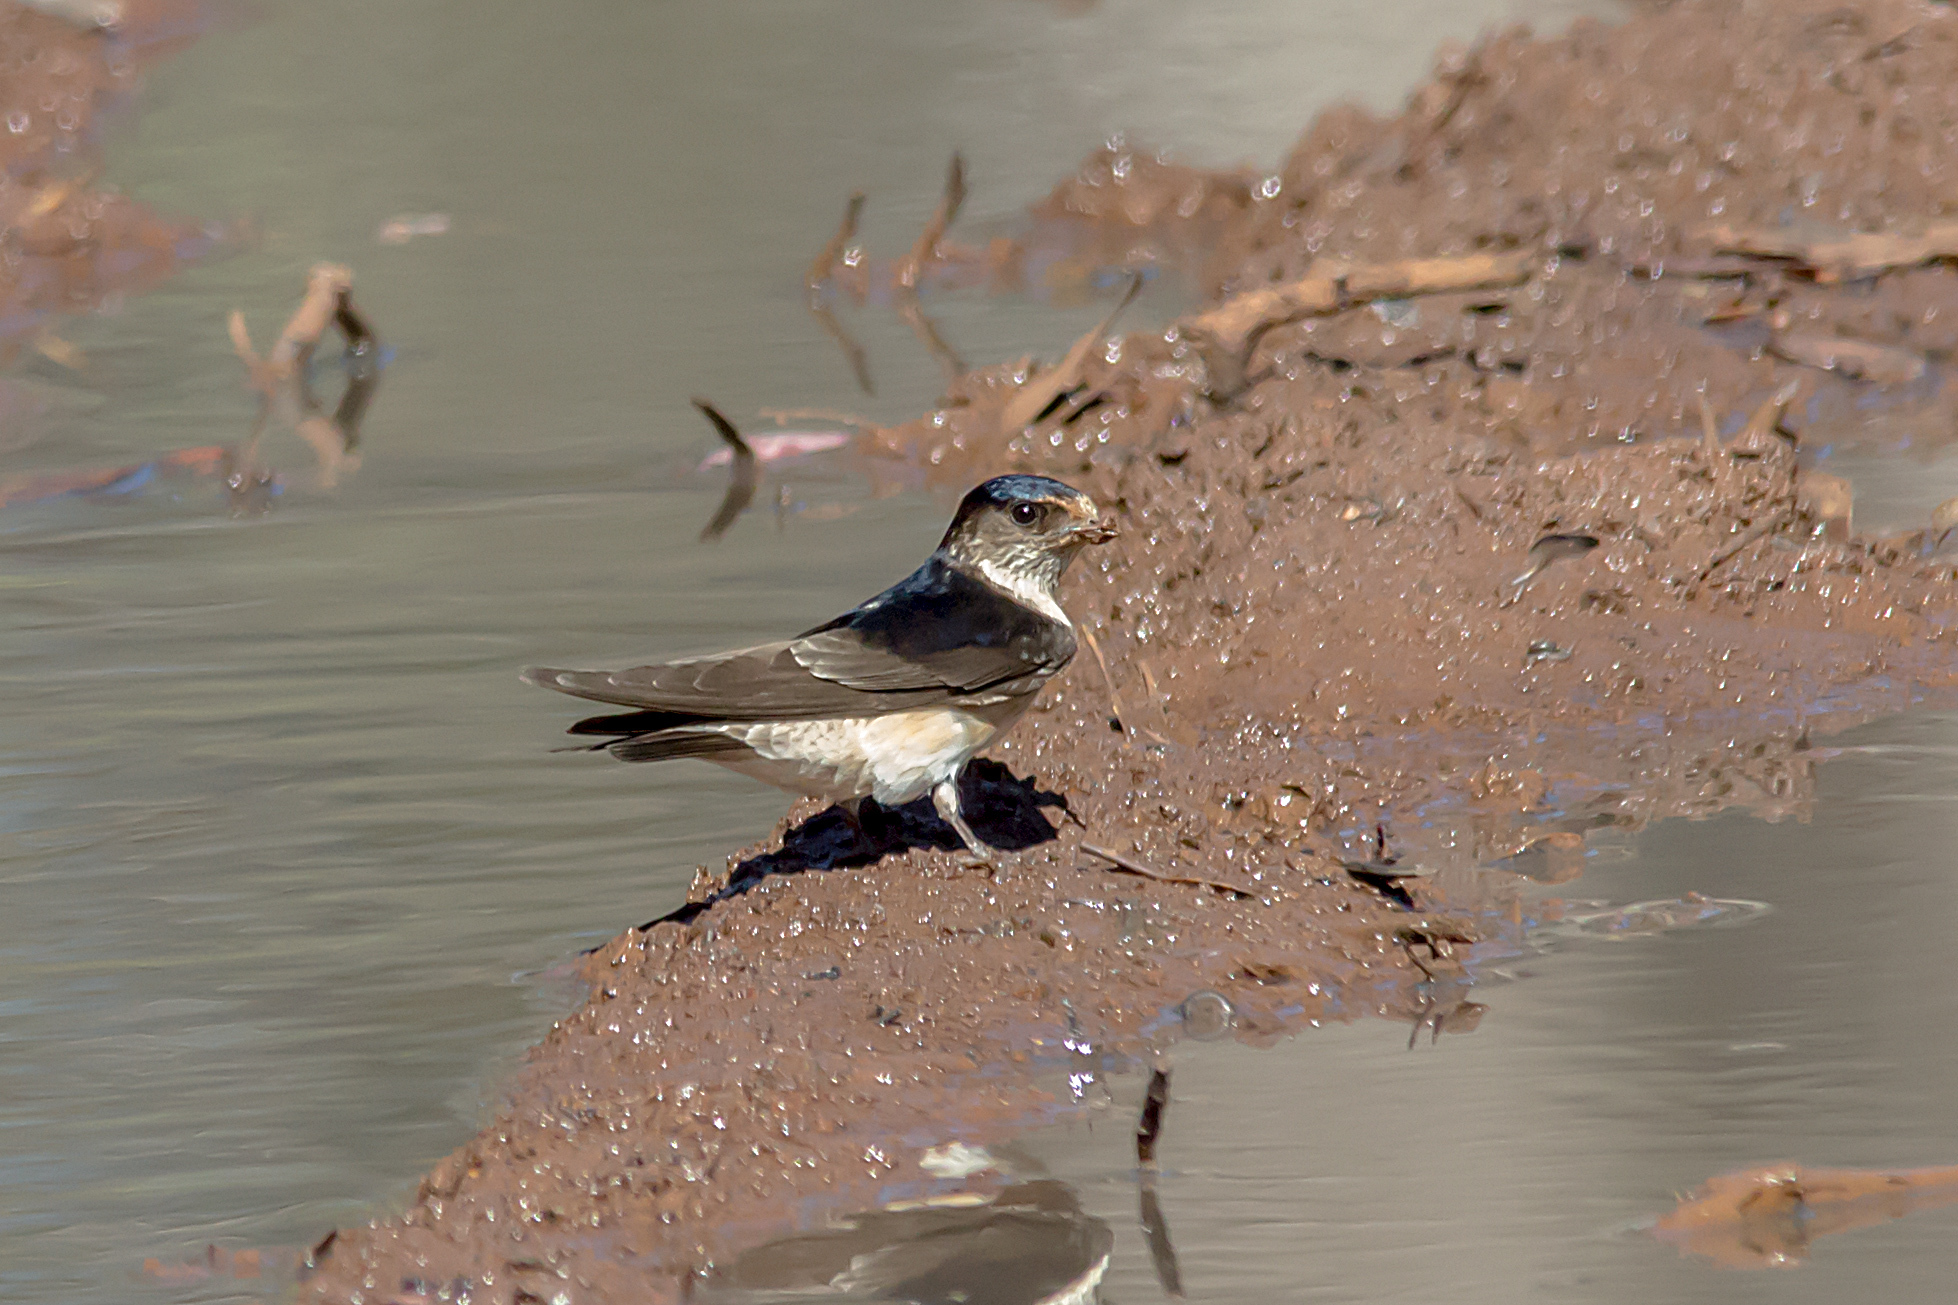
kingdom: Animalia
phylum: Chordata
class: Aves
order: Passeriformes
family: Hirundinidae
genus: Petrochelidon
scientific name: Petrochelidon nigricans
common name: Tree martin
